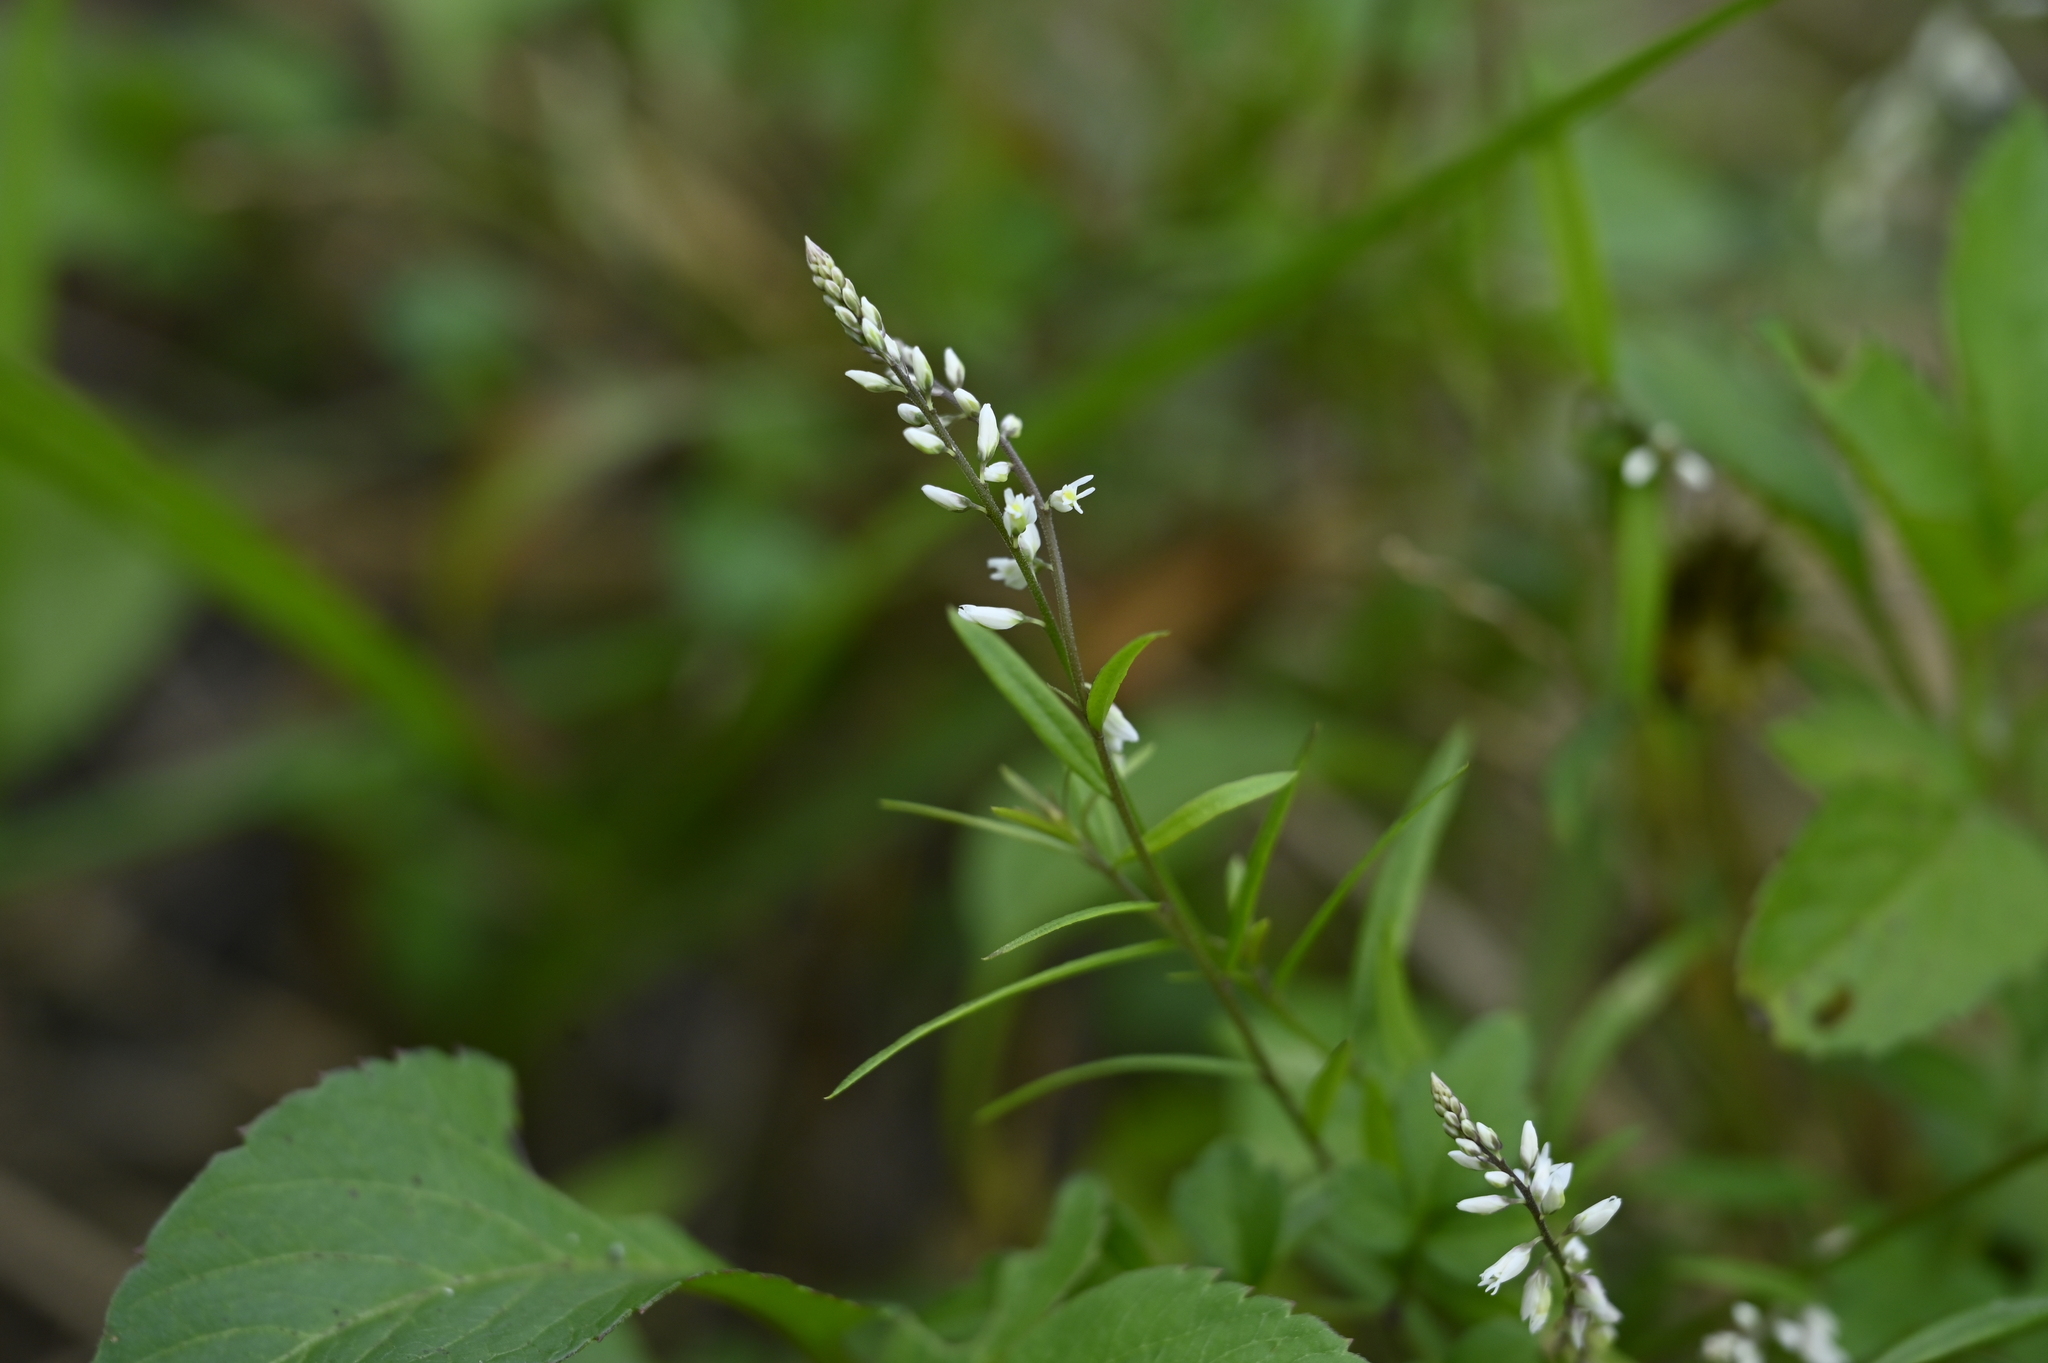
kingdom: Plantae
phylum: Tracheophyta
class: Magnoliopsida
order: Fabales
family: Polygalaceae
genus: Polygala
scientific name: Polygala paniculata
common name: Orosne
